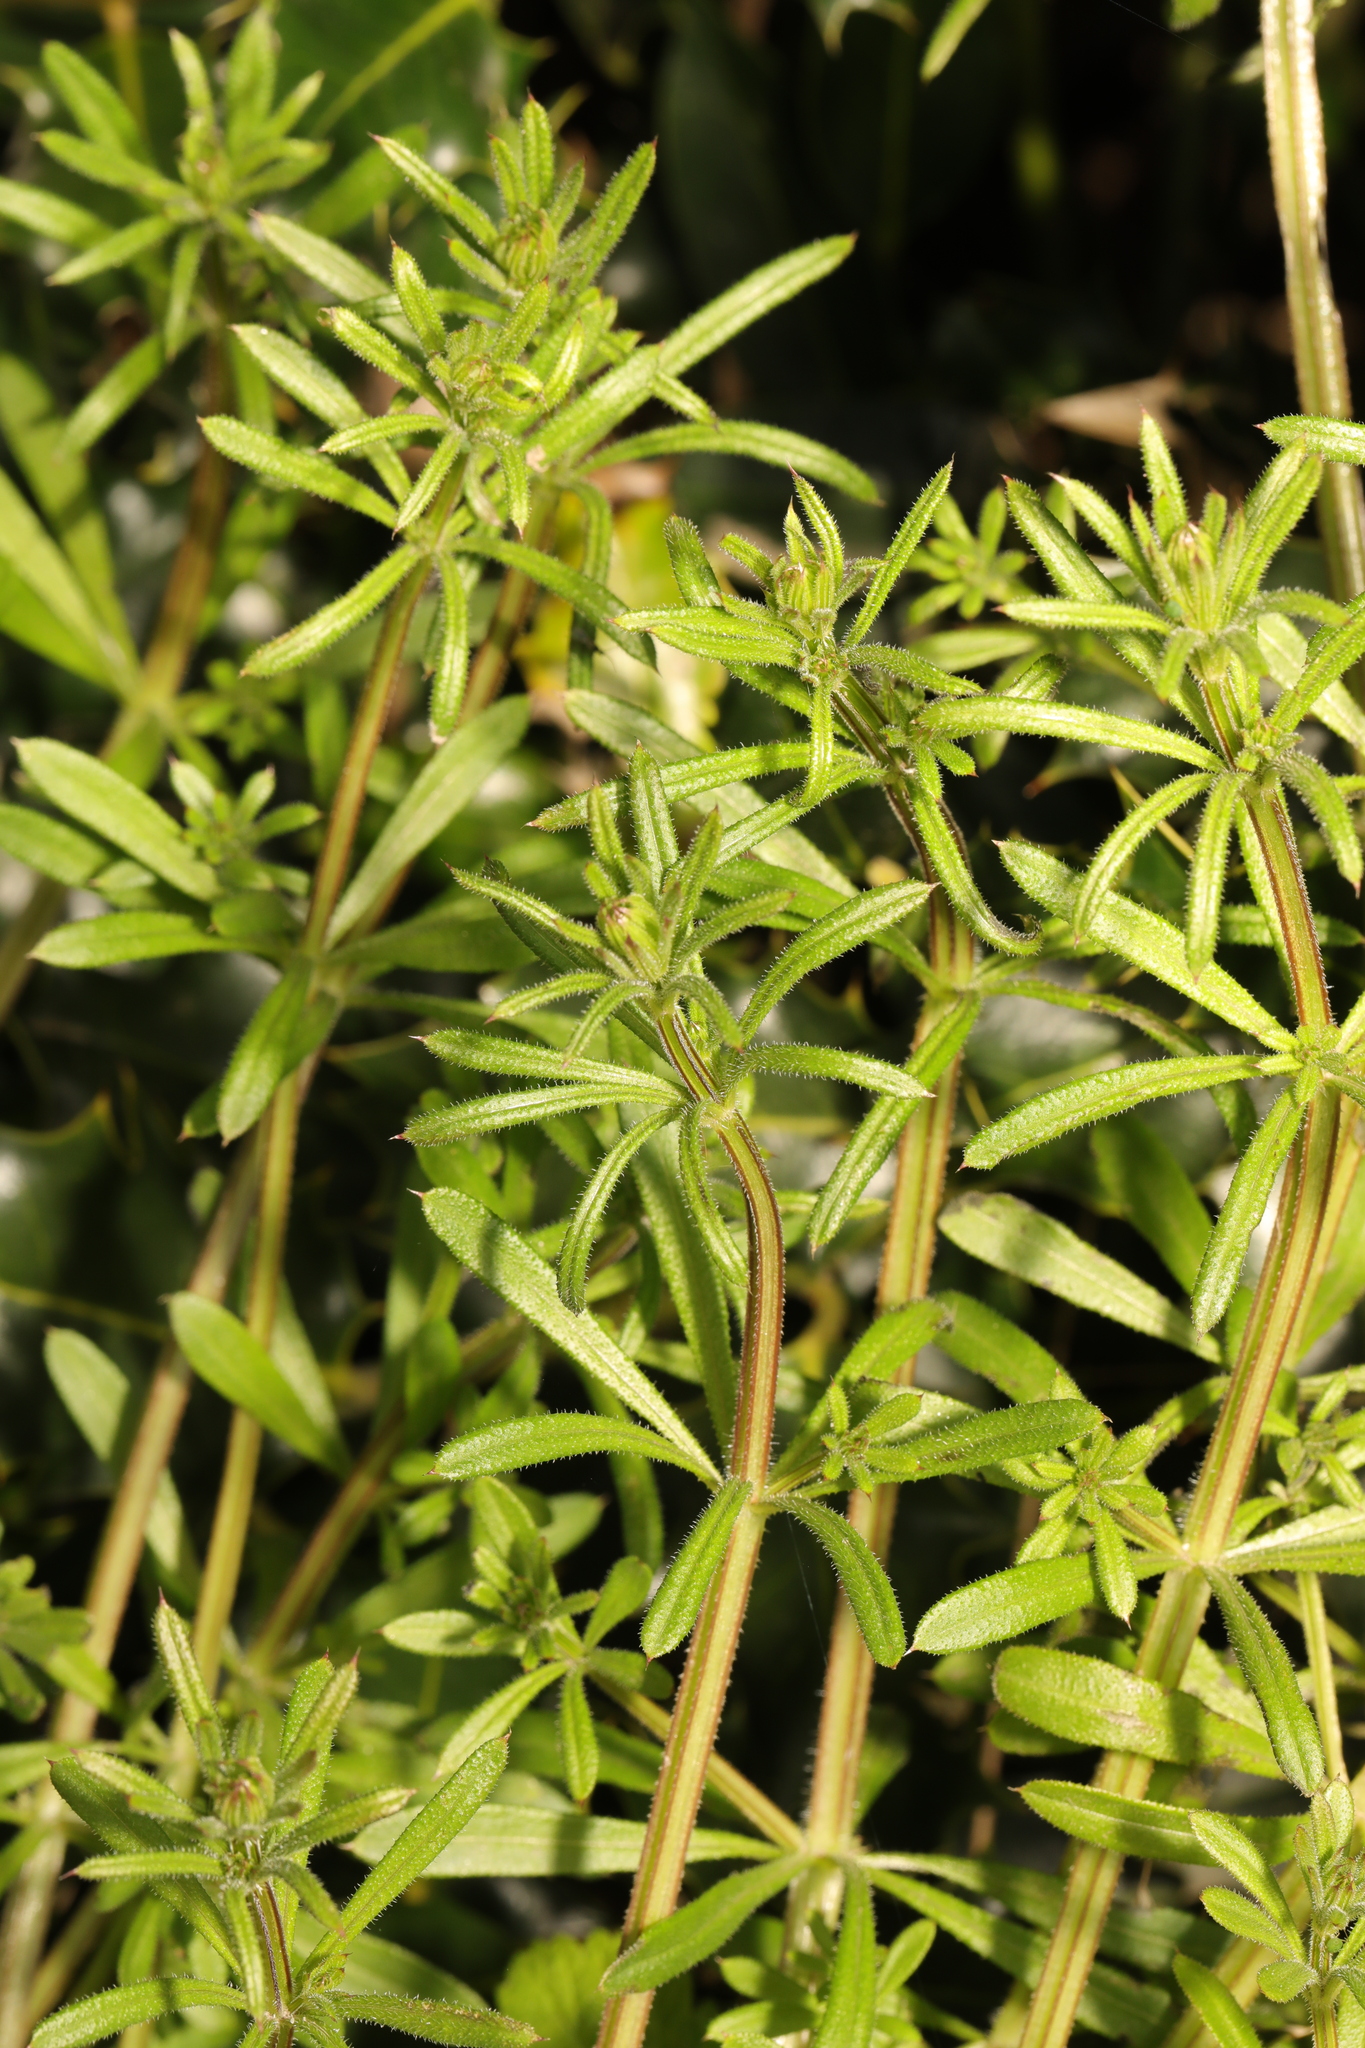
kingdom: Plantae
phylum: Tracheophyta
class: Magnoliopsida
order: Gentianales
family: Rubiaceae
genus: Galium
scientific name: Galium aparine
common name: Cleavers
